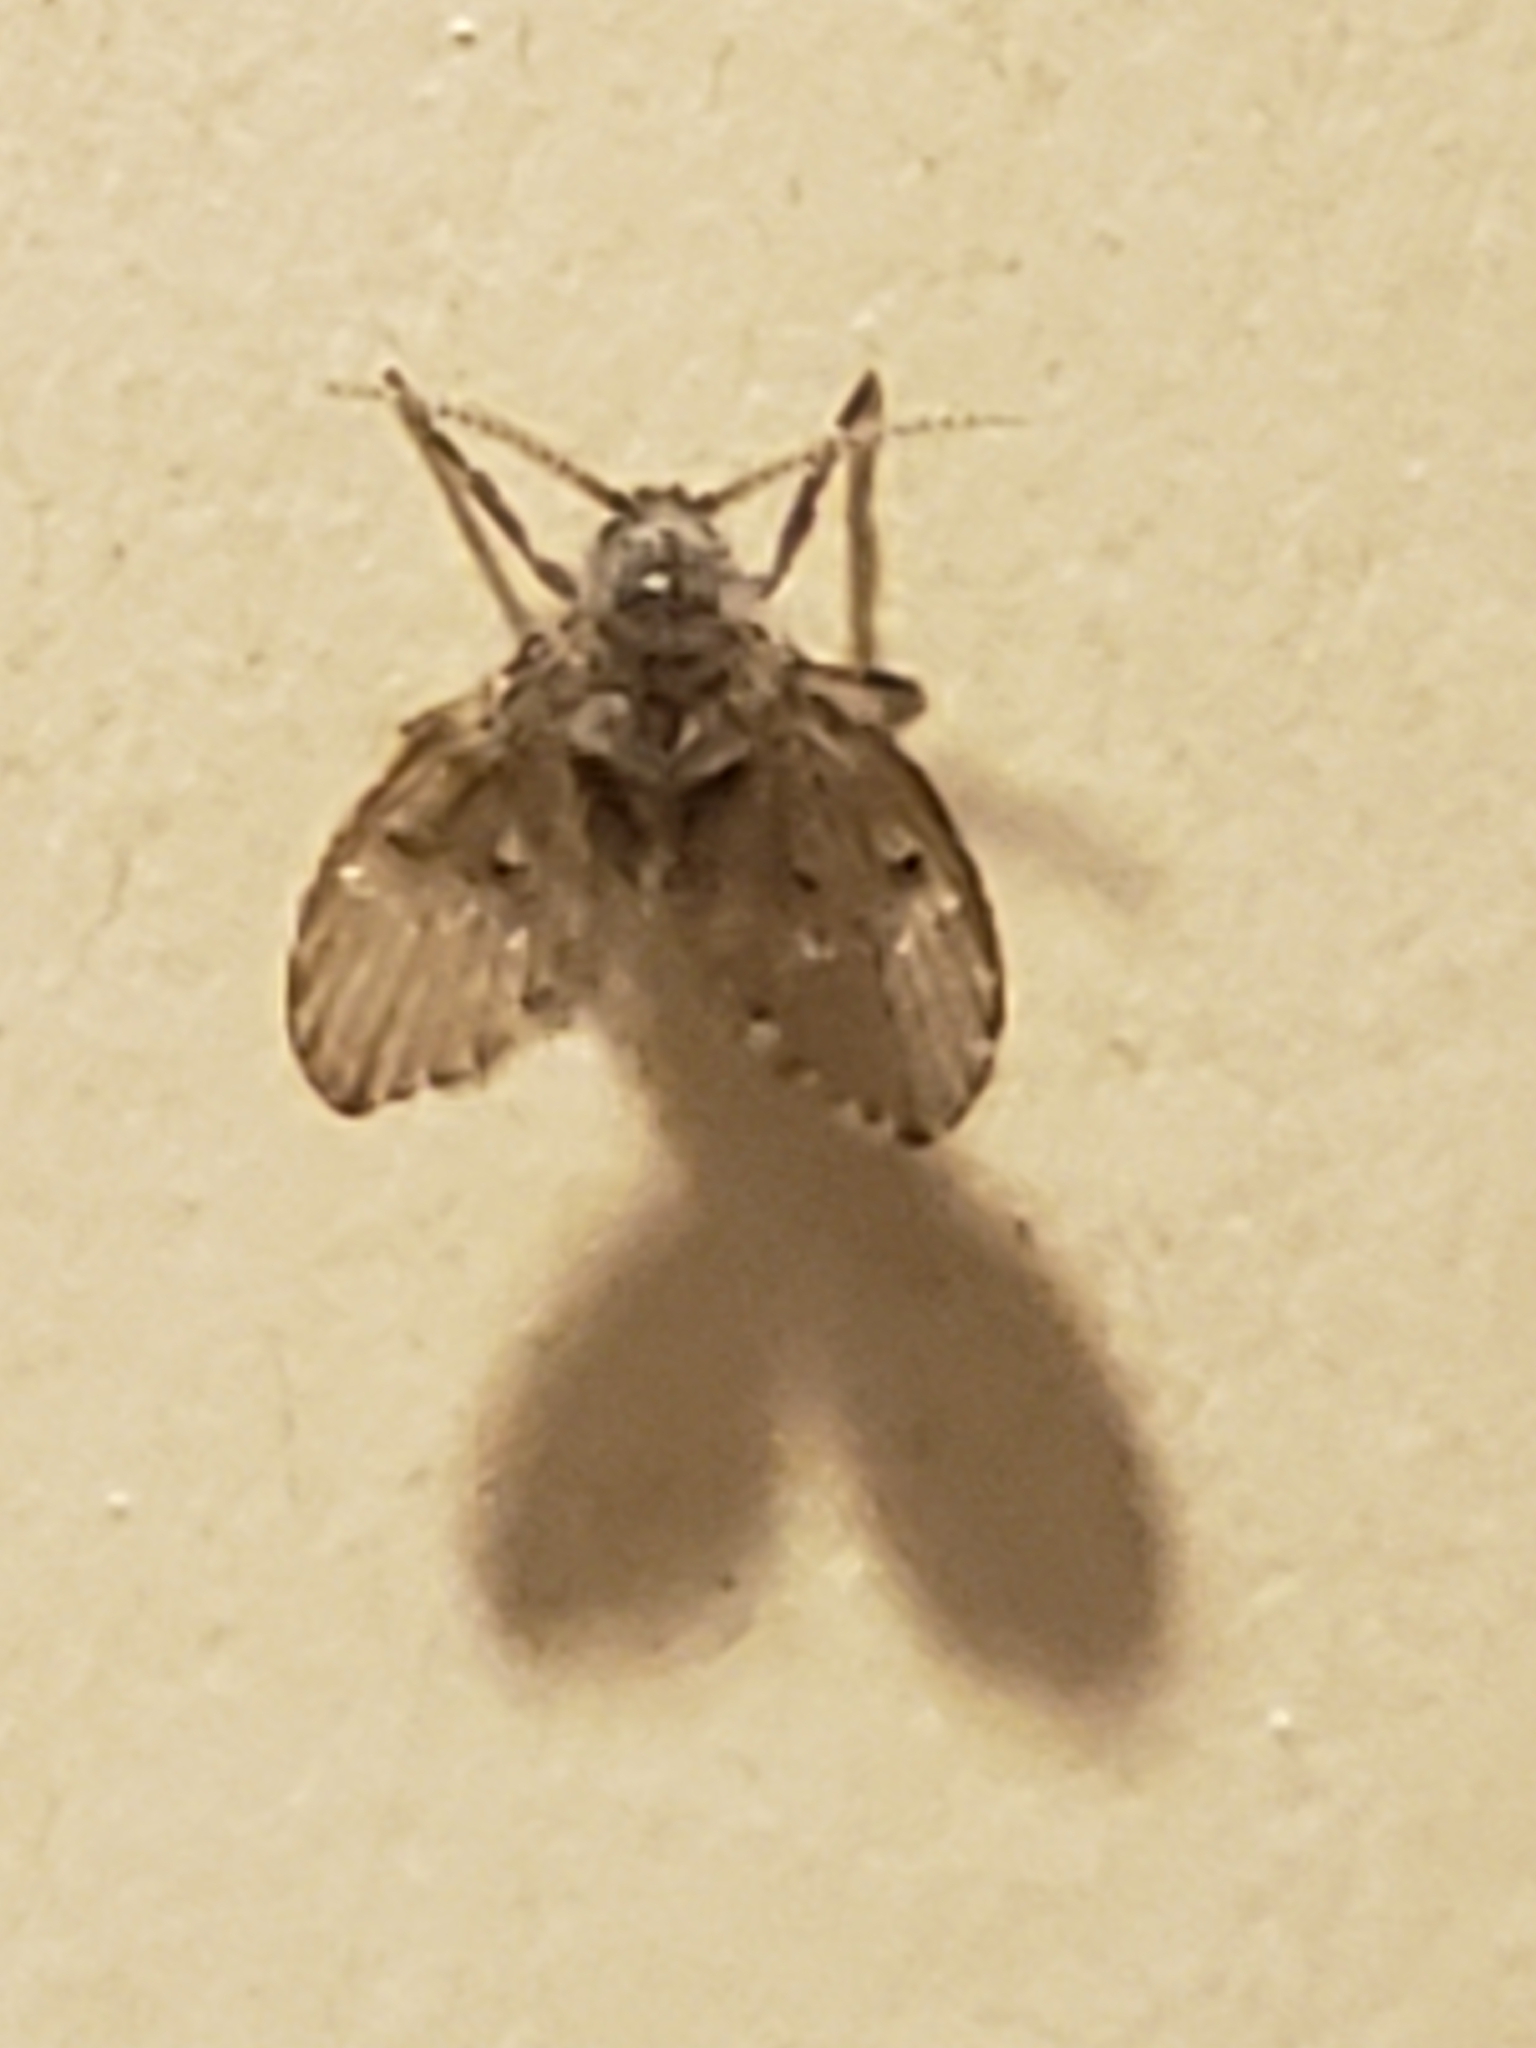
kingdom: Animalia
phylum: Arthropoda
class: Insecta
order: Diptera
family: Psychodidae
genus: Clogmia
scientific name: Clogmia albipunctatus
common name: White-spotted moth fly
